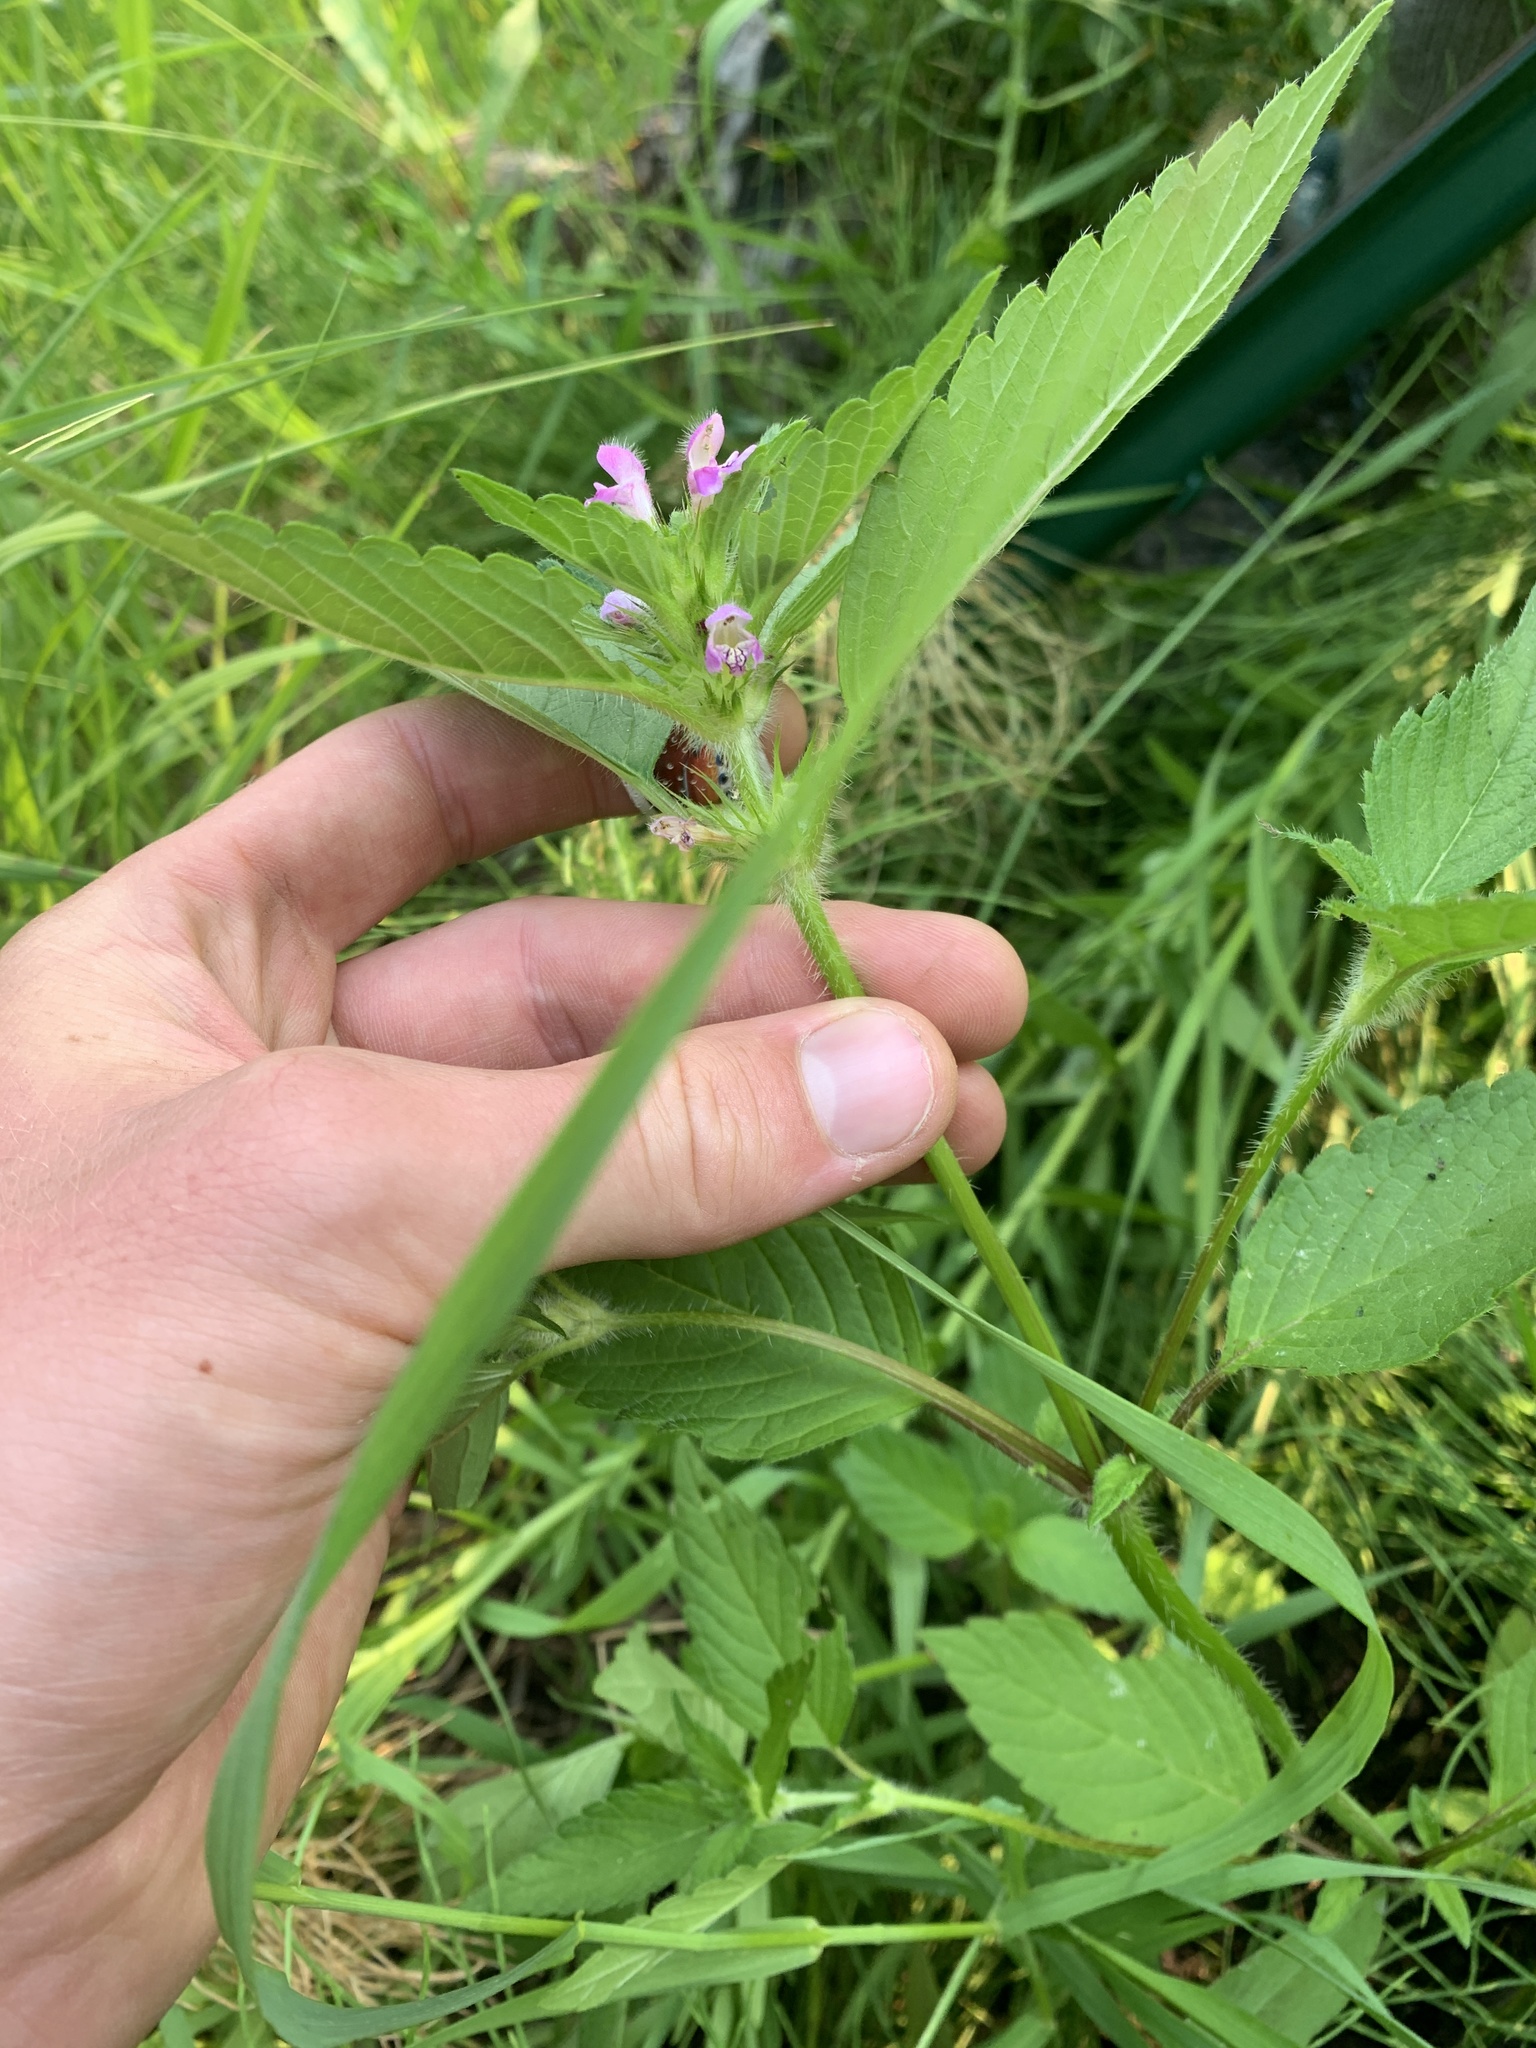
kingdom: Plantae
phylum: Tracheophyta
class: Magnoliopsida
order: Lamiales
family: Lamiaceae
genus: Galeopsis
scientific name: Galeopsis tetrahit
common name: Common hemp-nettle
